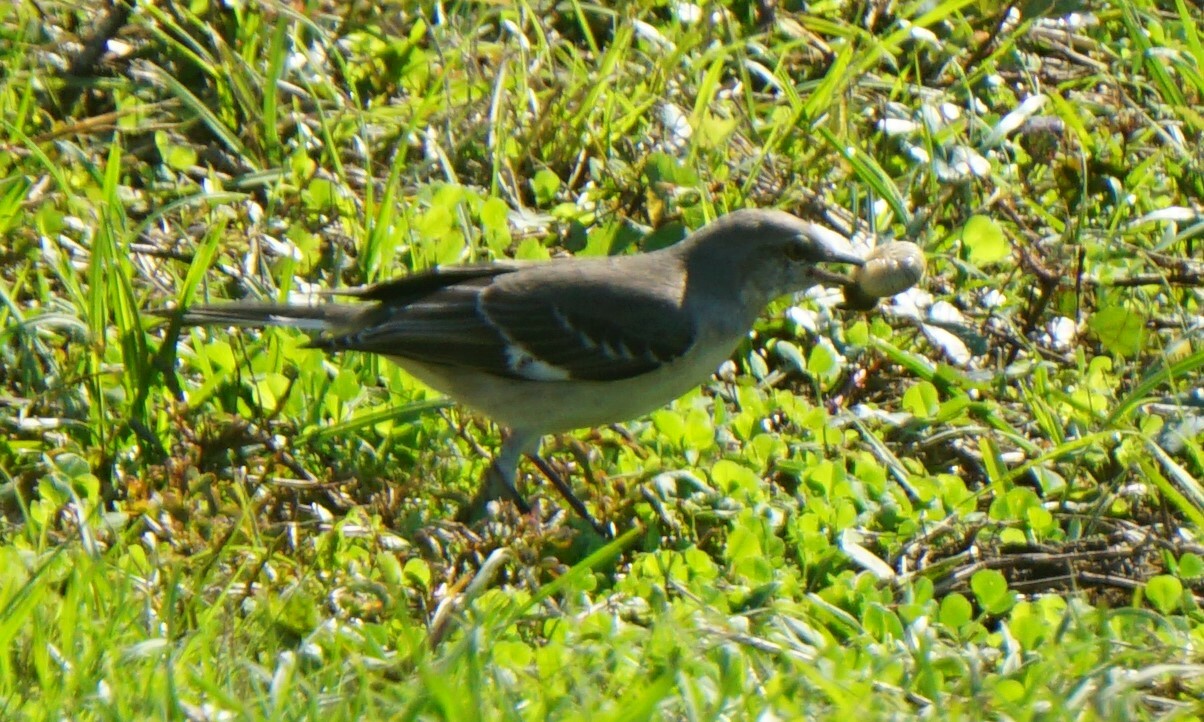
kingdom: Animalia
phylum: Chordata
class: Aves
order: Passeriformes
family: Mimidae
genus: Mimus
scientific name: Mimus polyglottos
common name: Northern mockingbird
